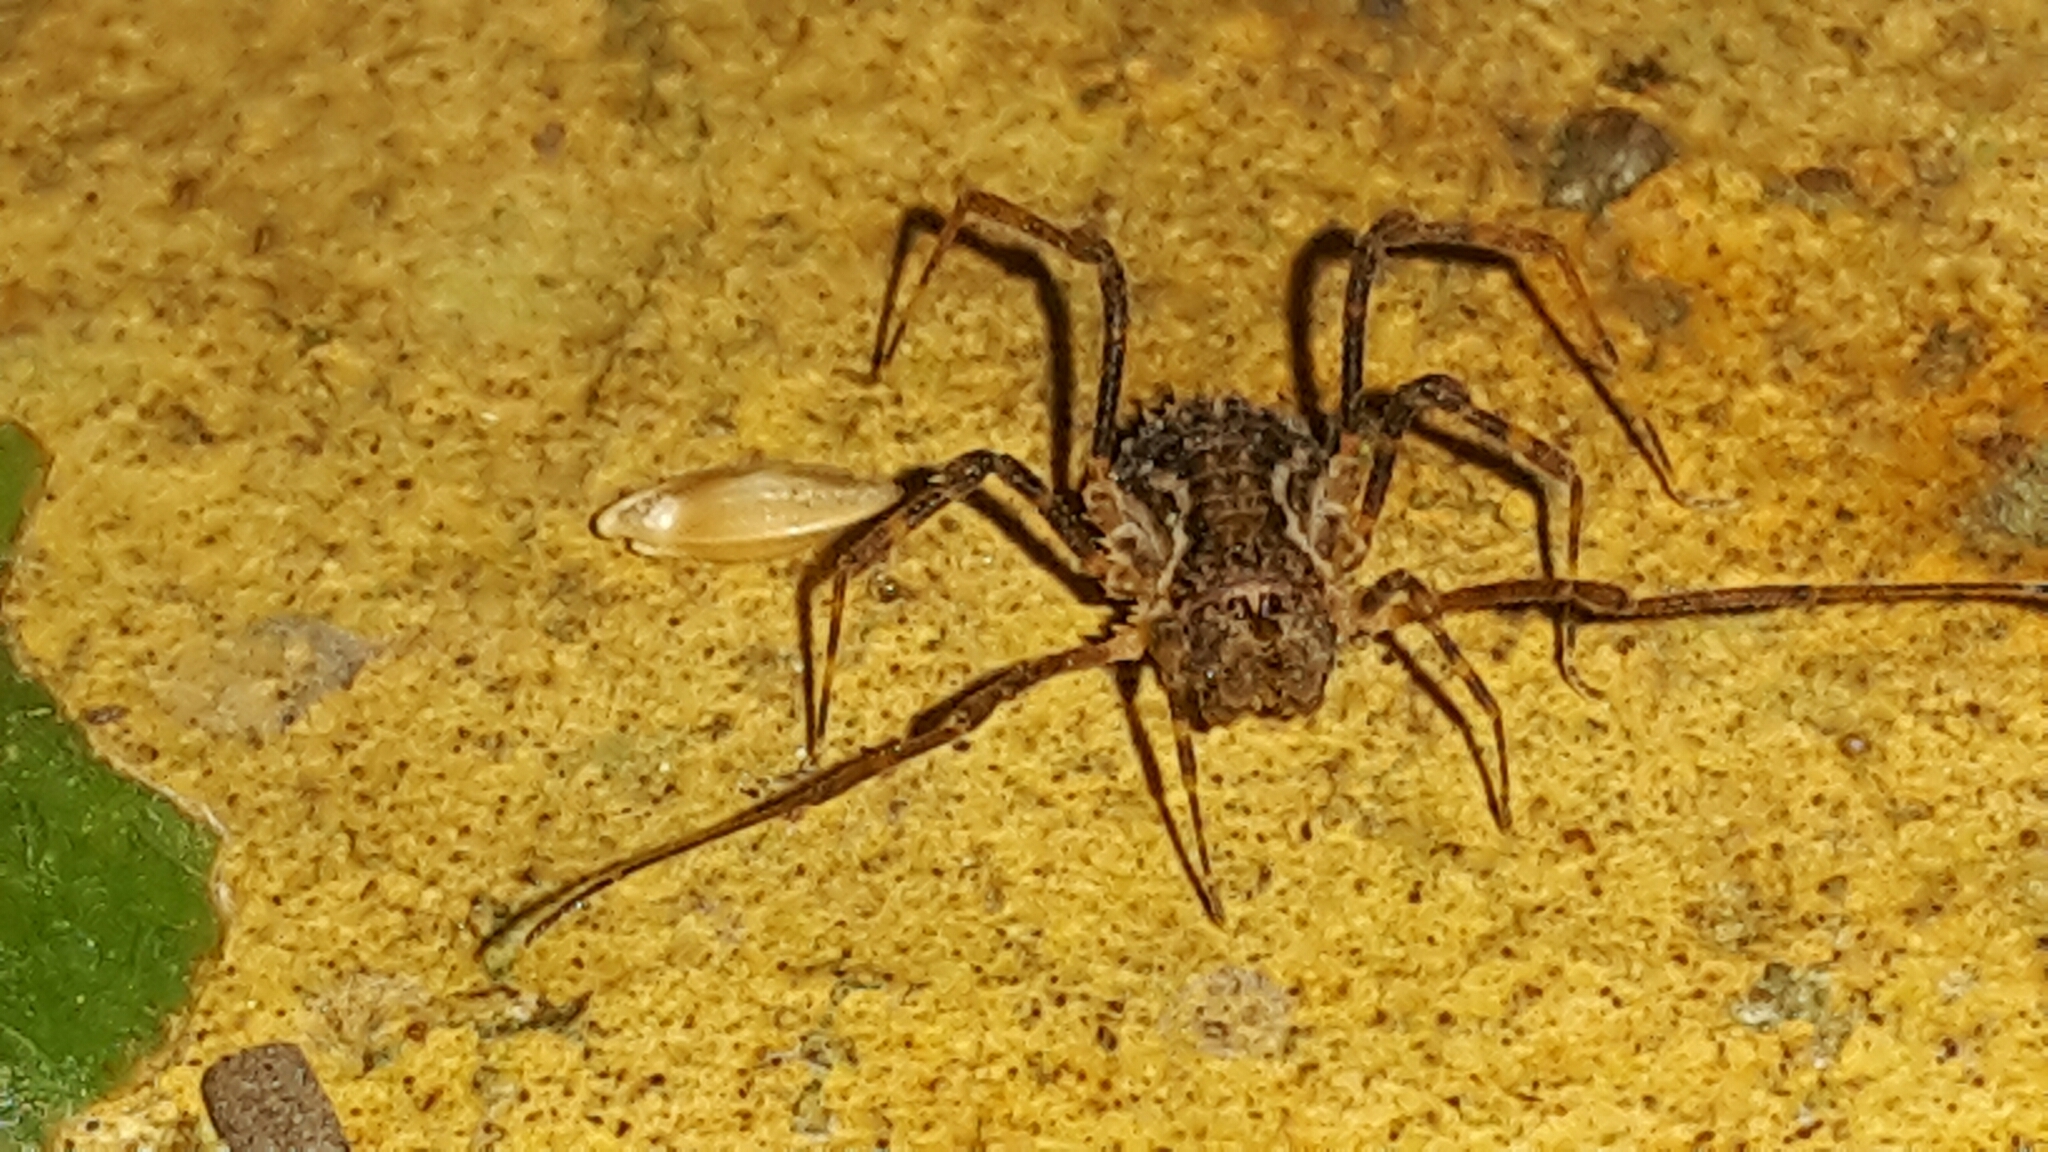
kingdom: Animalia
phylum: Arthropoda
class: Arachnida
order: Opiliones
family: Triaenonychidae
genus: Algidia
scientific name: Algidia chiltoni
